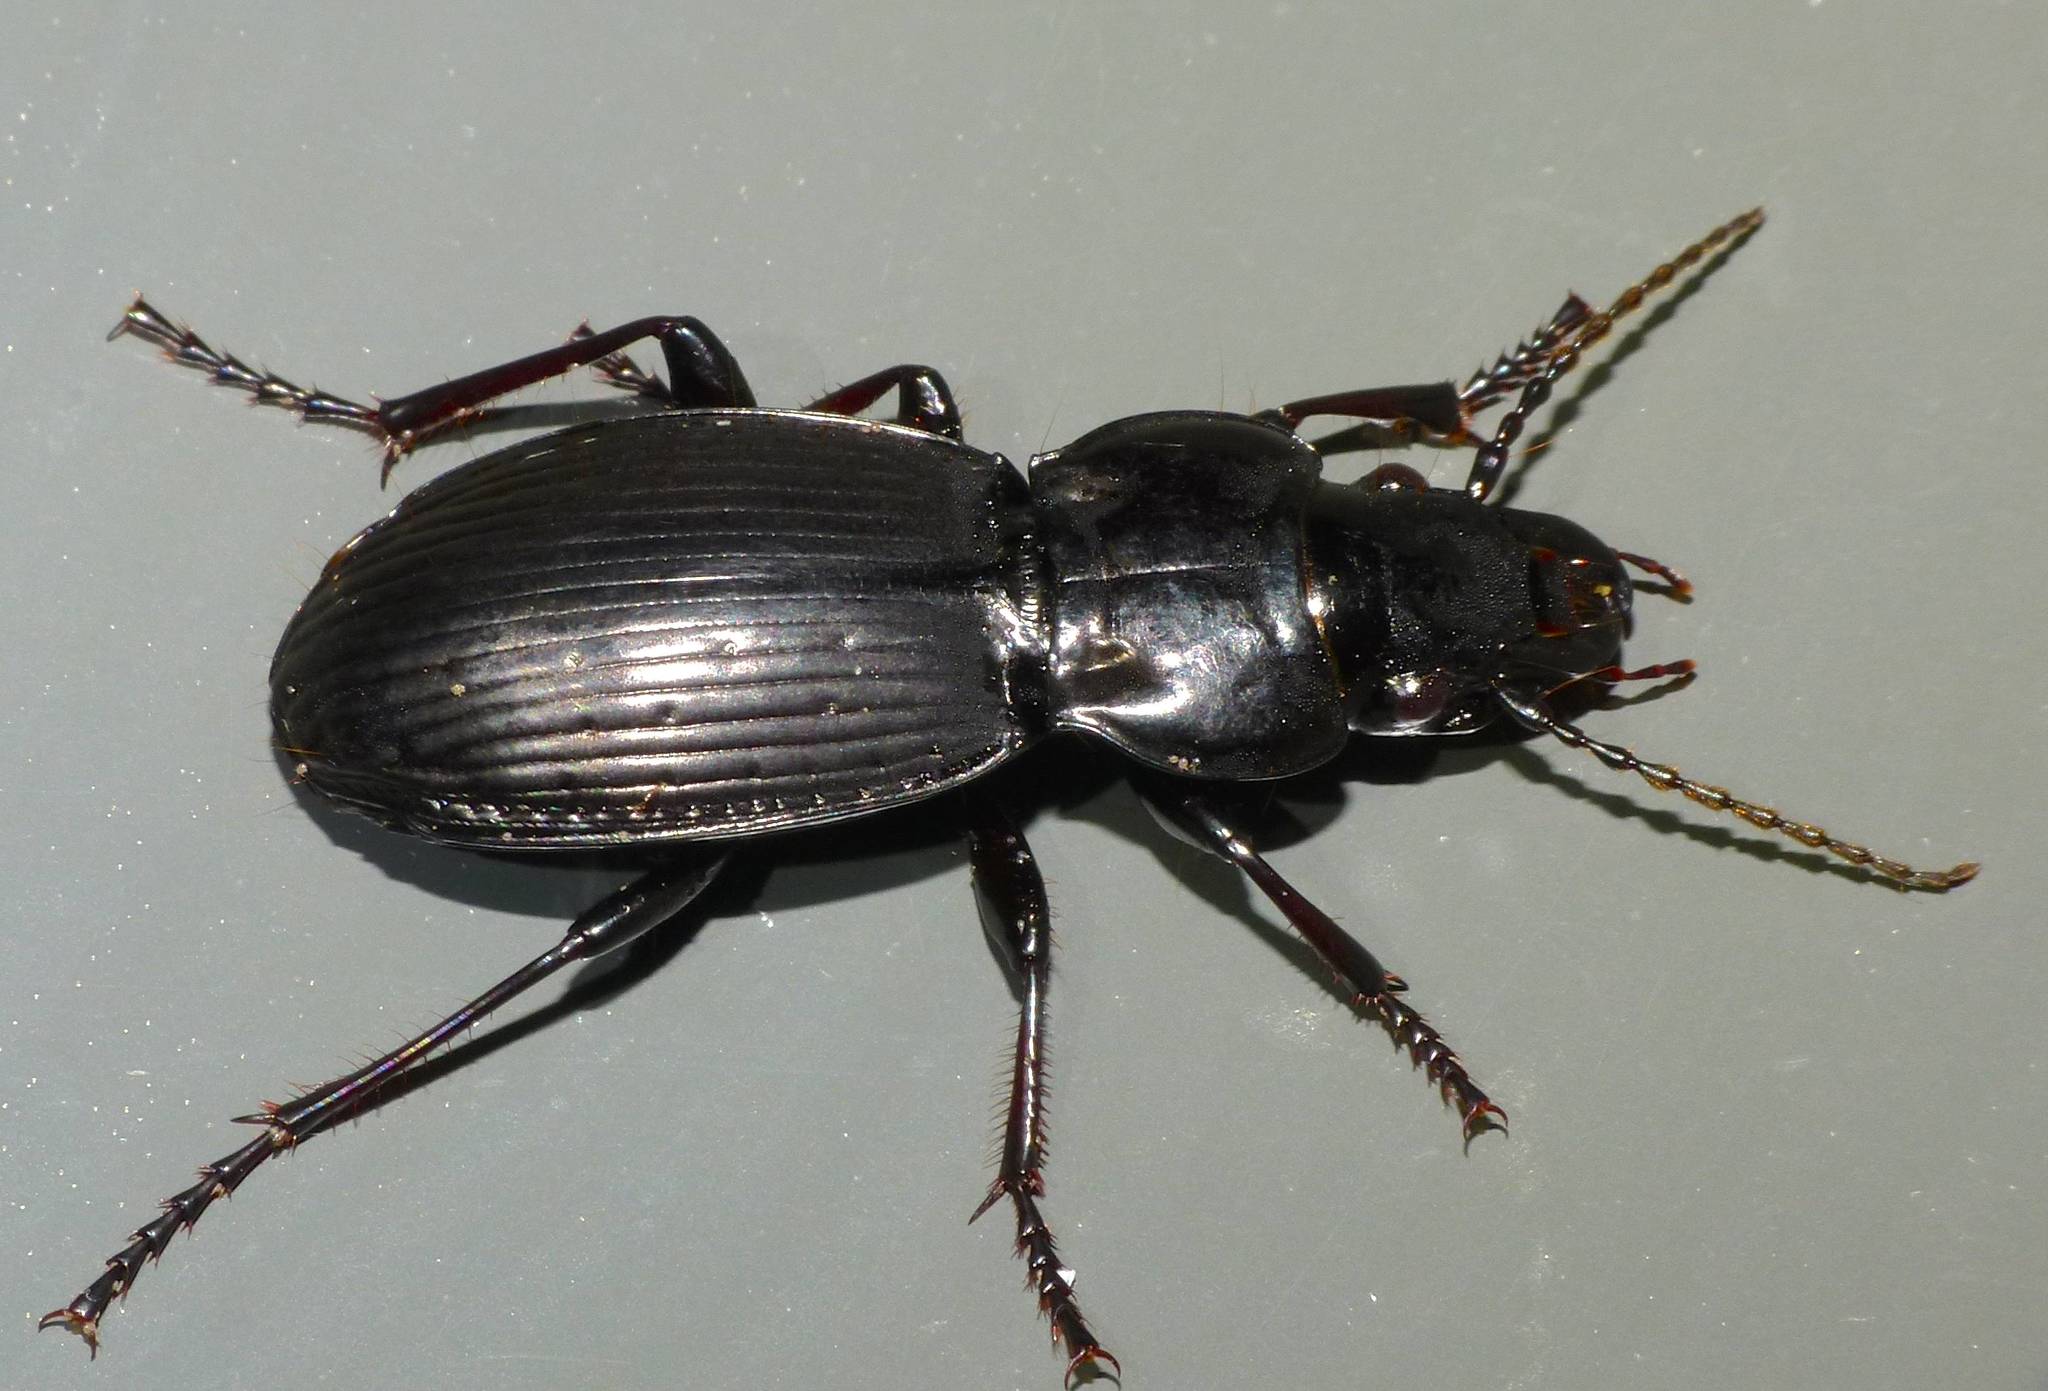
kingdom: Animalia
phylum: Arthropoda
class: Insecta
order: Coleoptera
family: Carabidae
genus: Megadromus
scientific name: Megadromus sandageri
